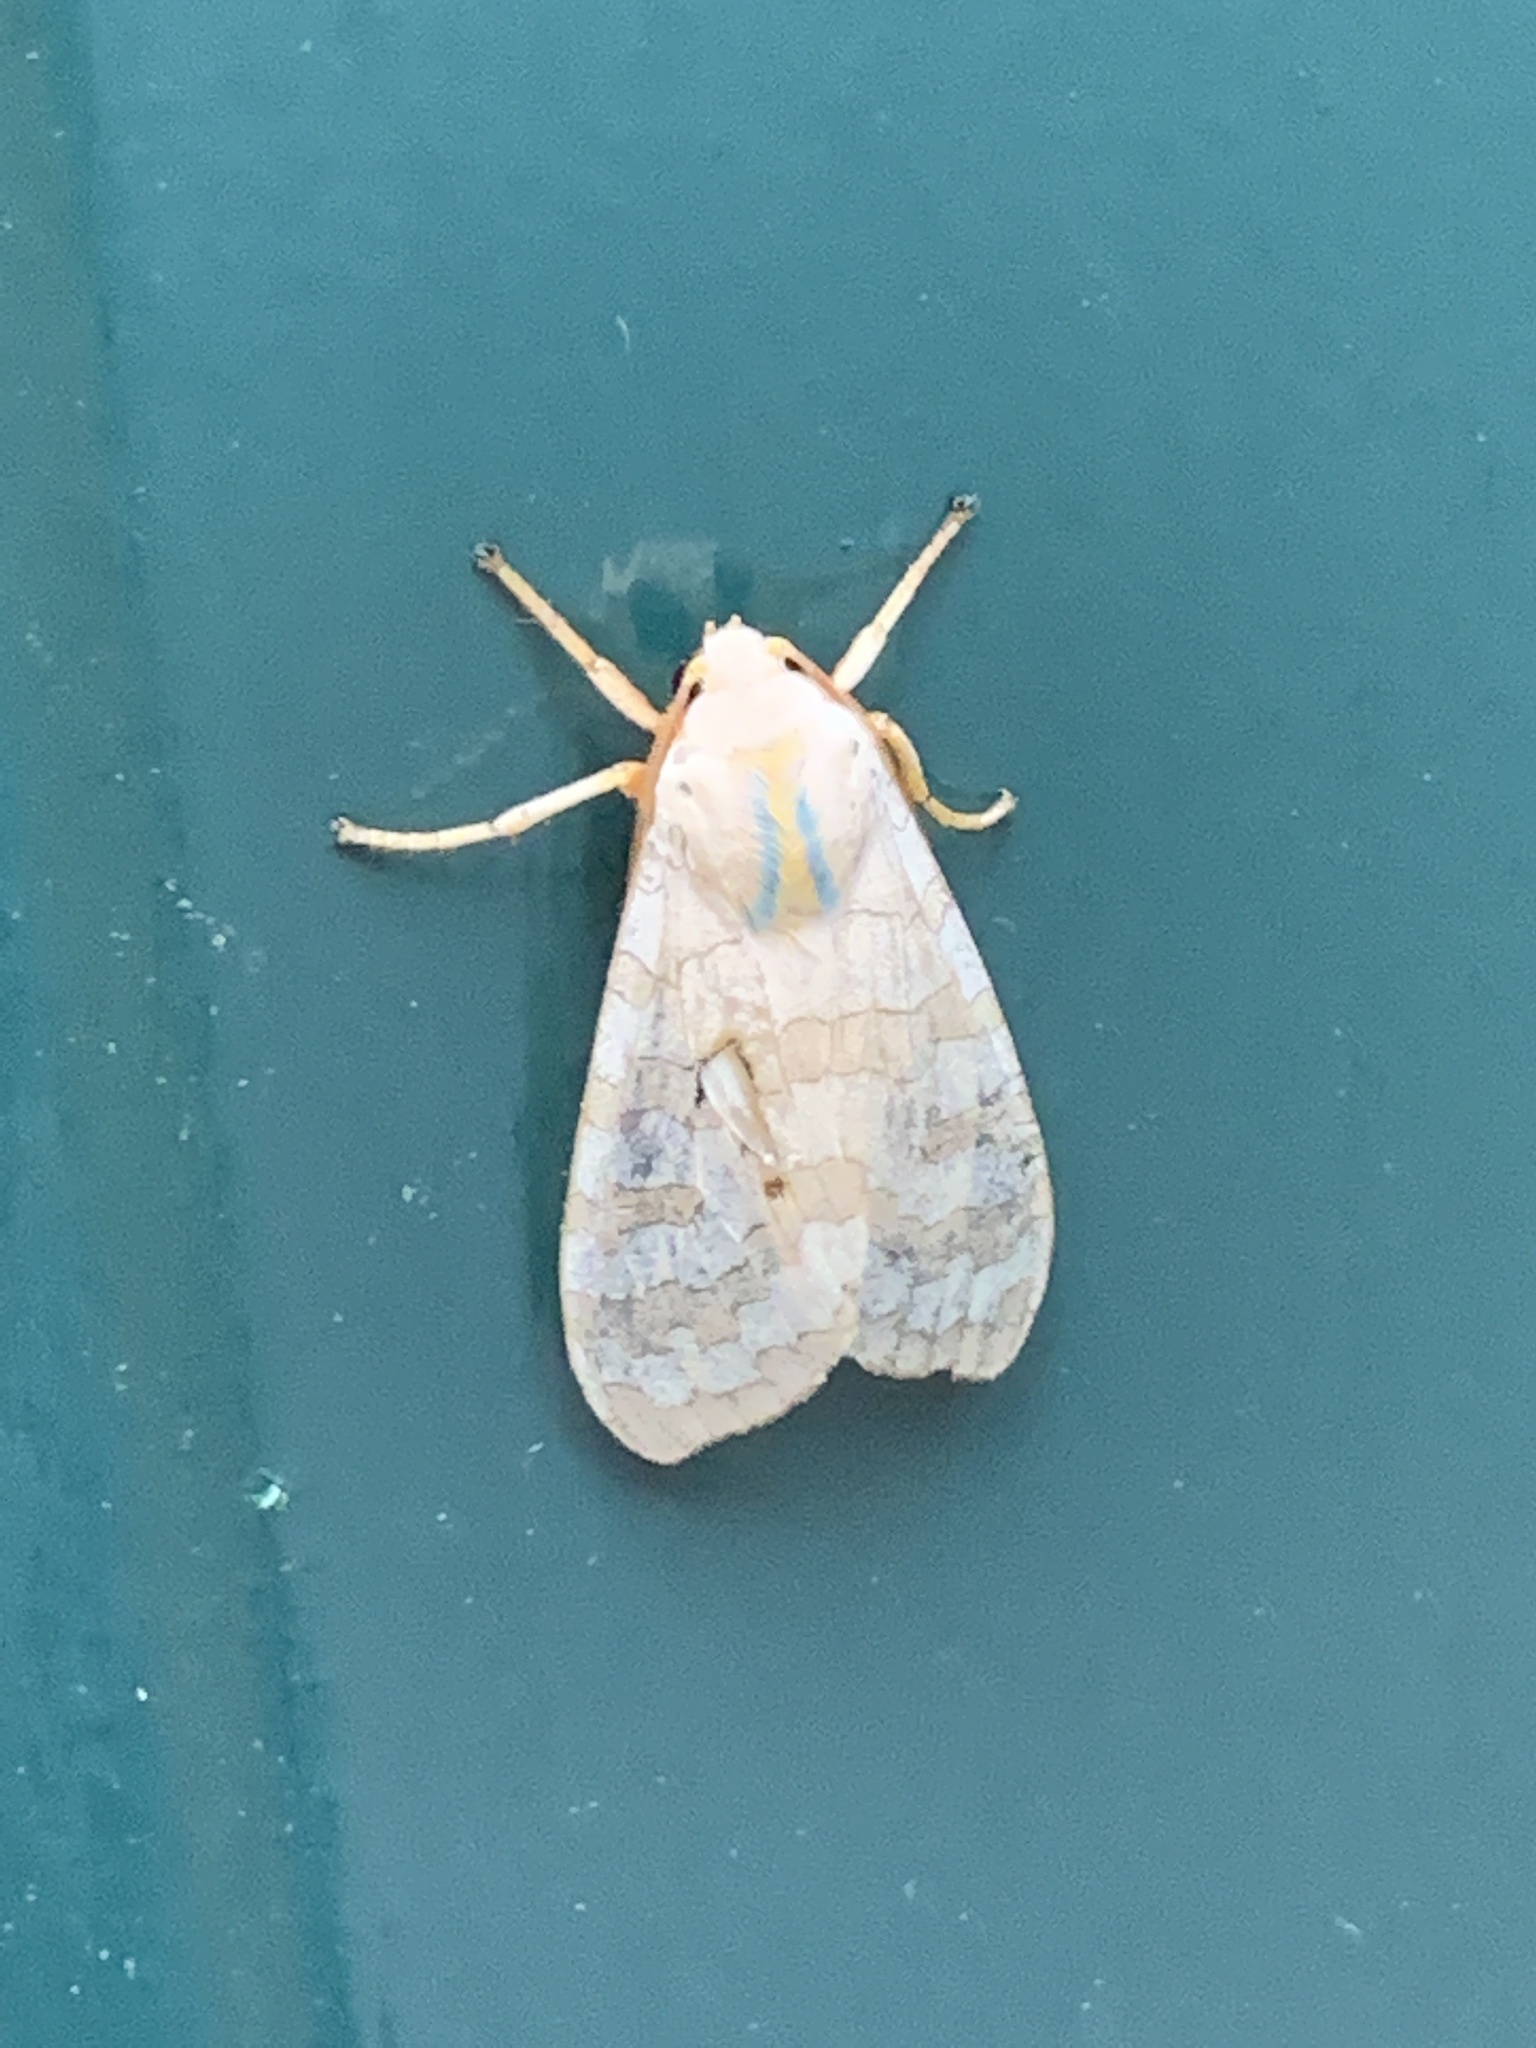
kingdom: Animalia
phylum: Arthropoda
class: Insecta
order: Lepidoptera
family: Erebidae
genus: Halysidota
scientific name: Halysidota
